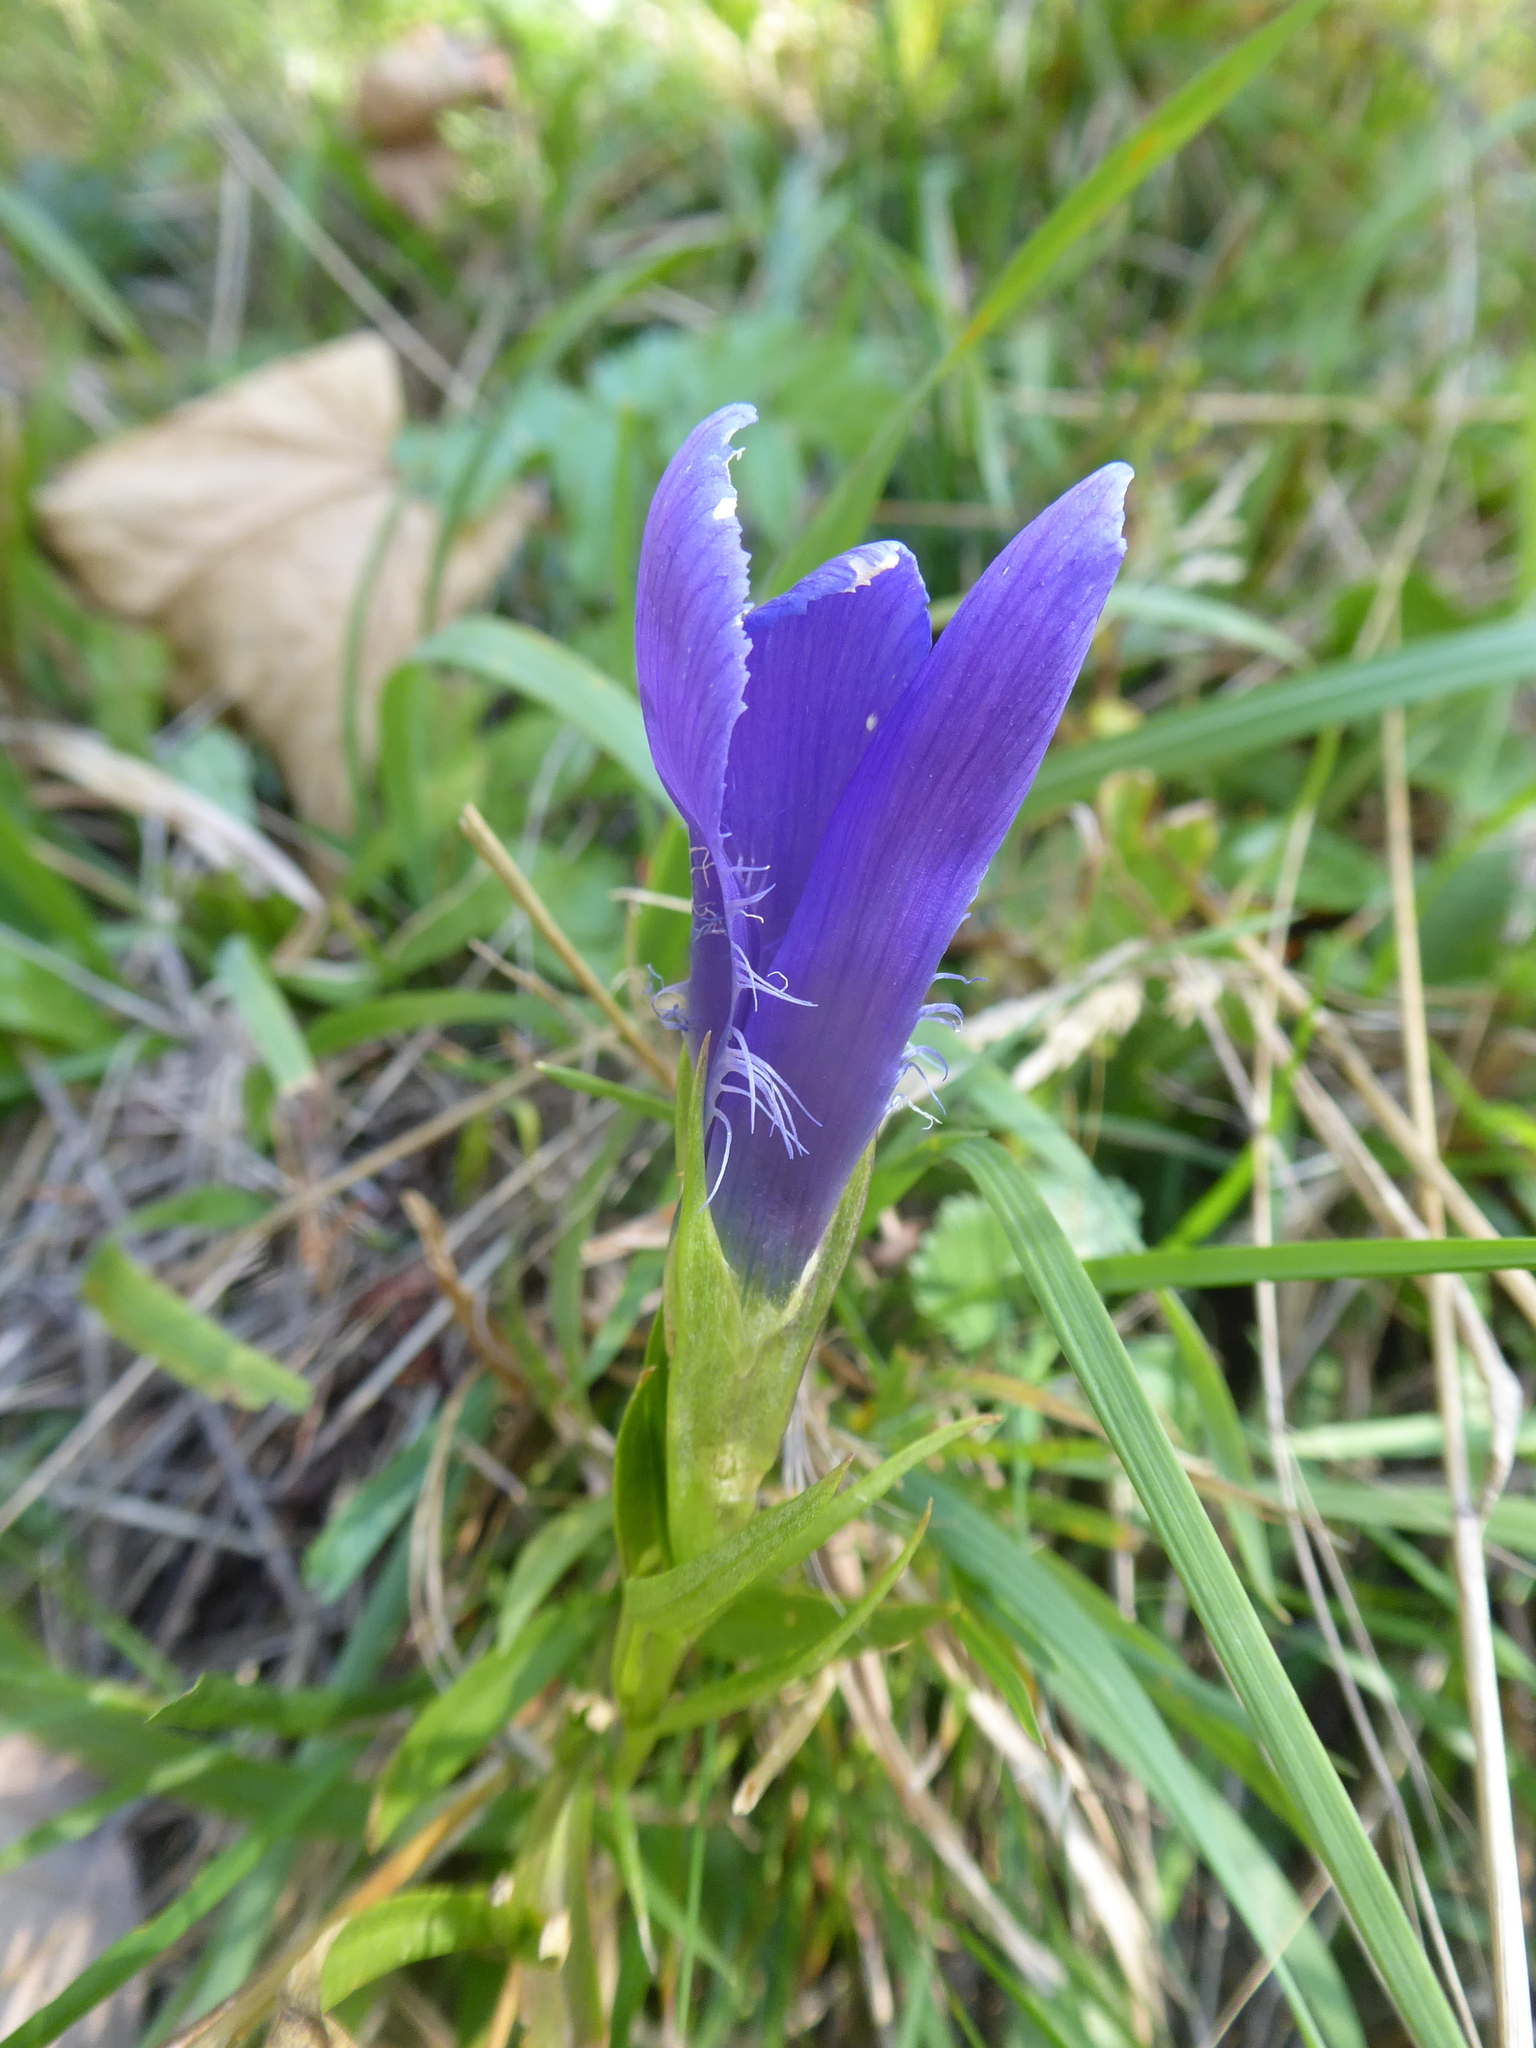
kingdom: Plantae
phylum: Tracheophyta
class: Magnoliopsida
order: Gentianales
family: Gentianaceae
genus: Gentianopsis
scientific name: Gentianopsis ciliata
